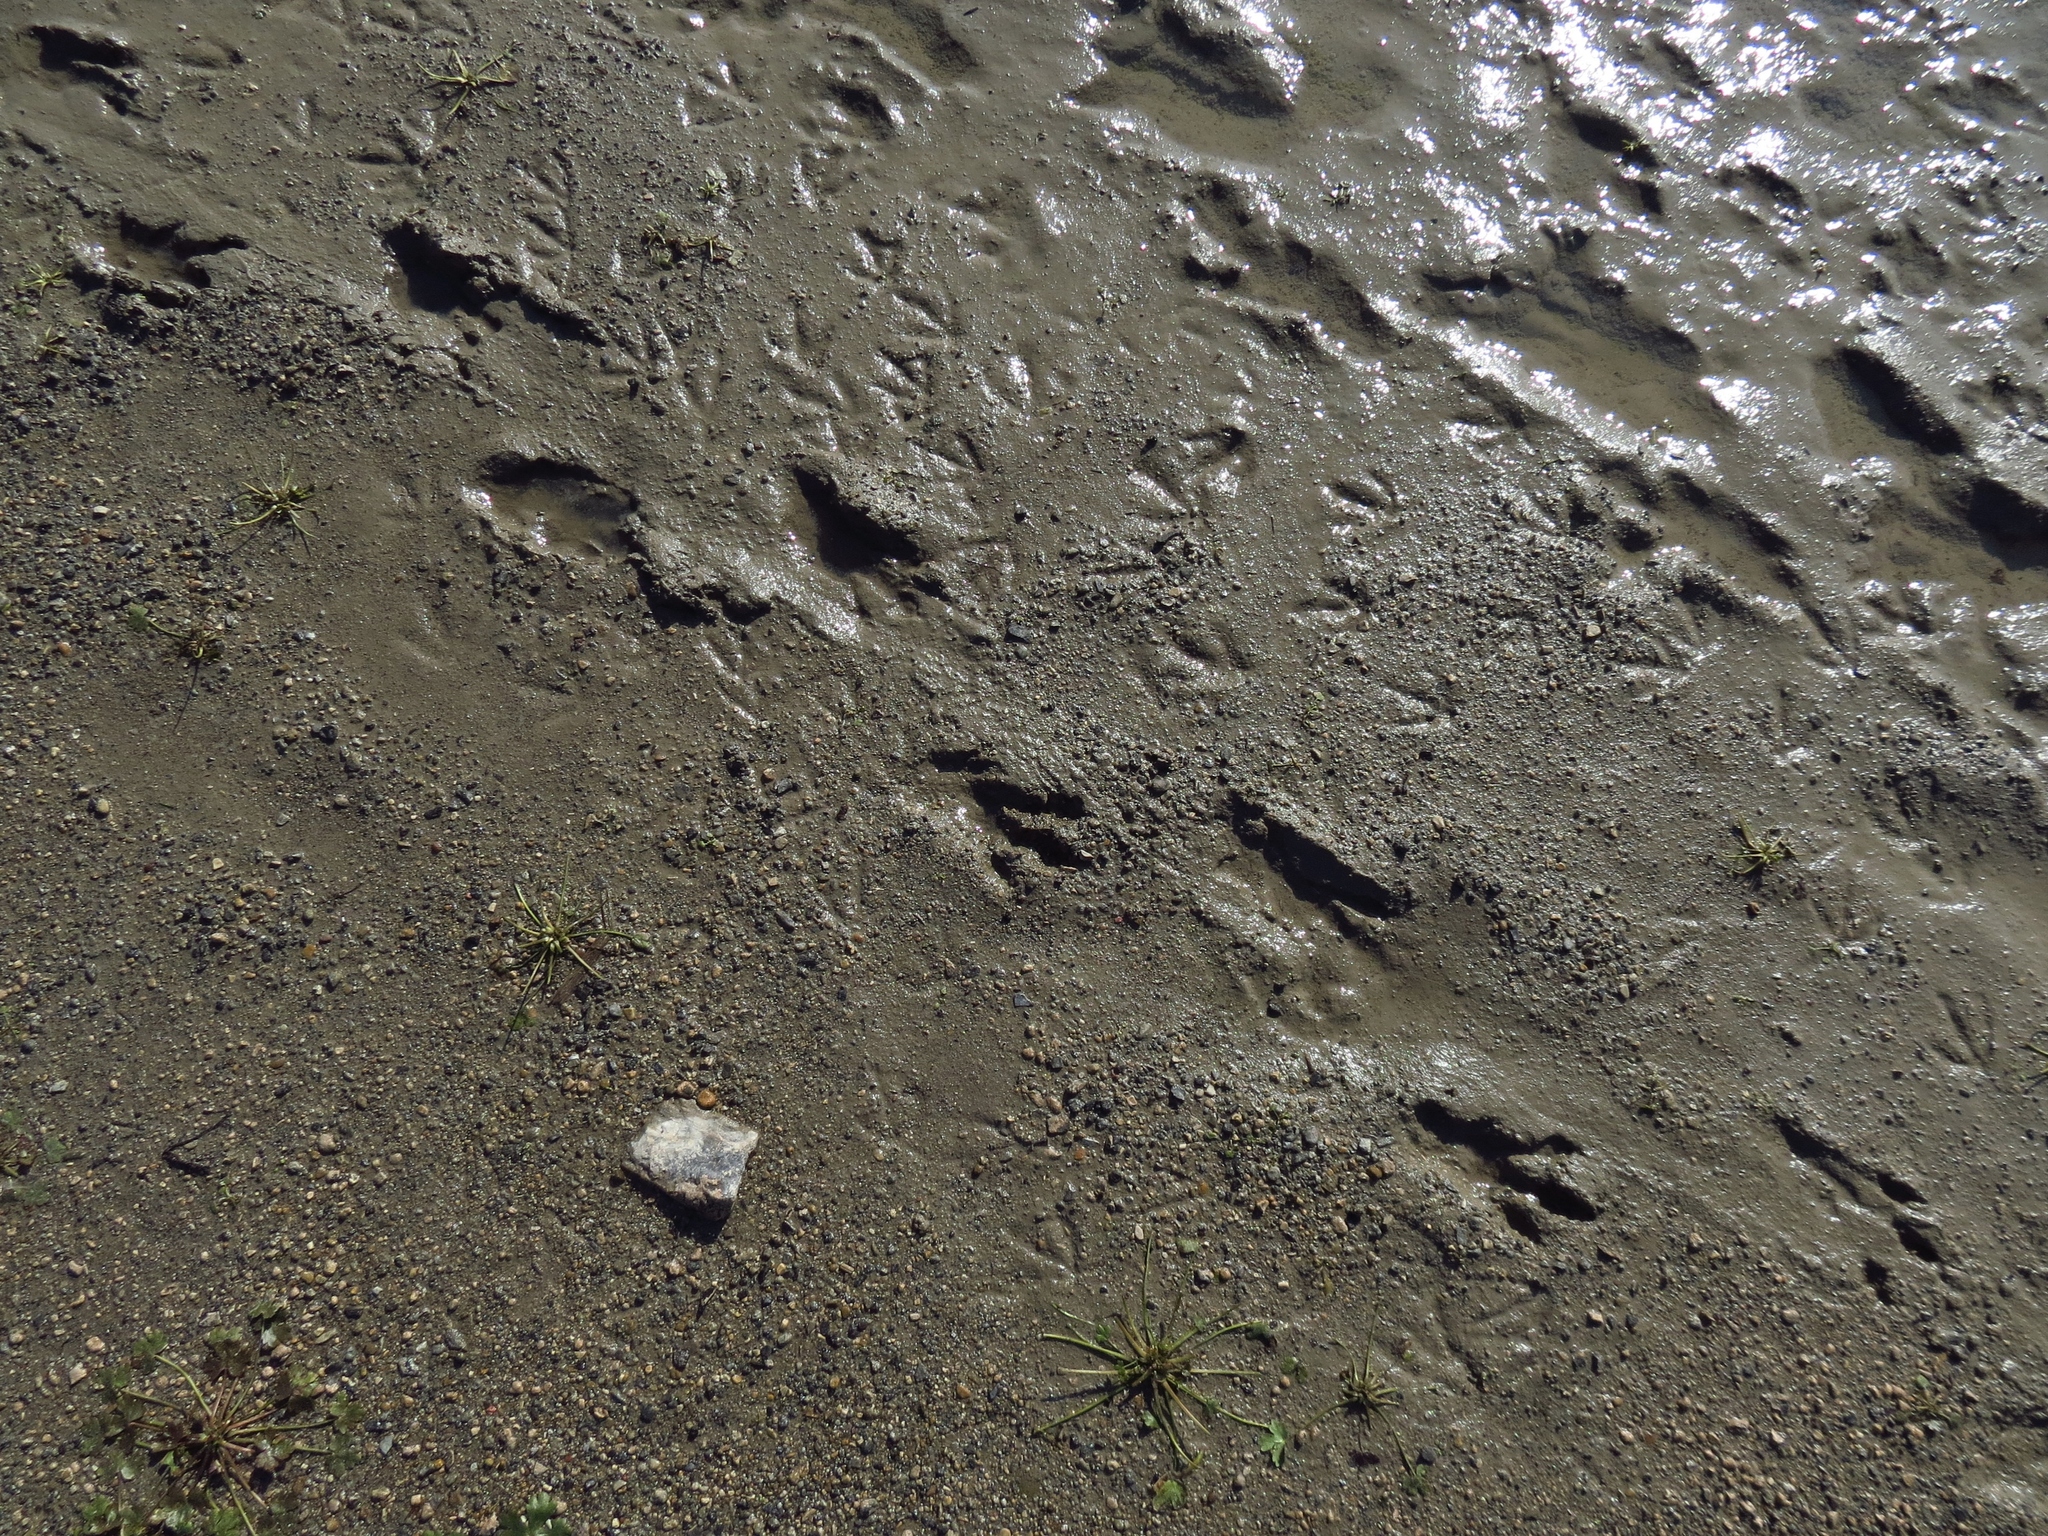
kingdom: Animalia
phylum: Chordata
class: Mammalia
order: Rodentia
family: Castoridae
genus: Castor
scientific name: Castor canadensis
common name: American beaver
